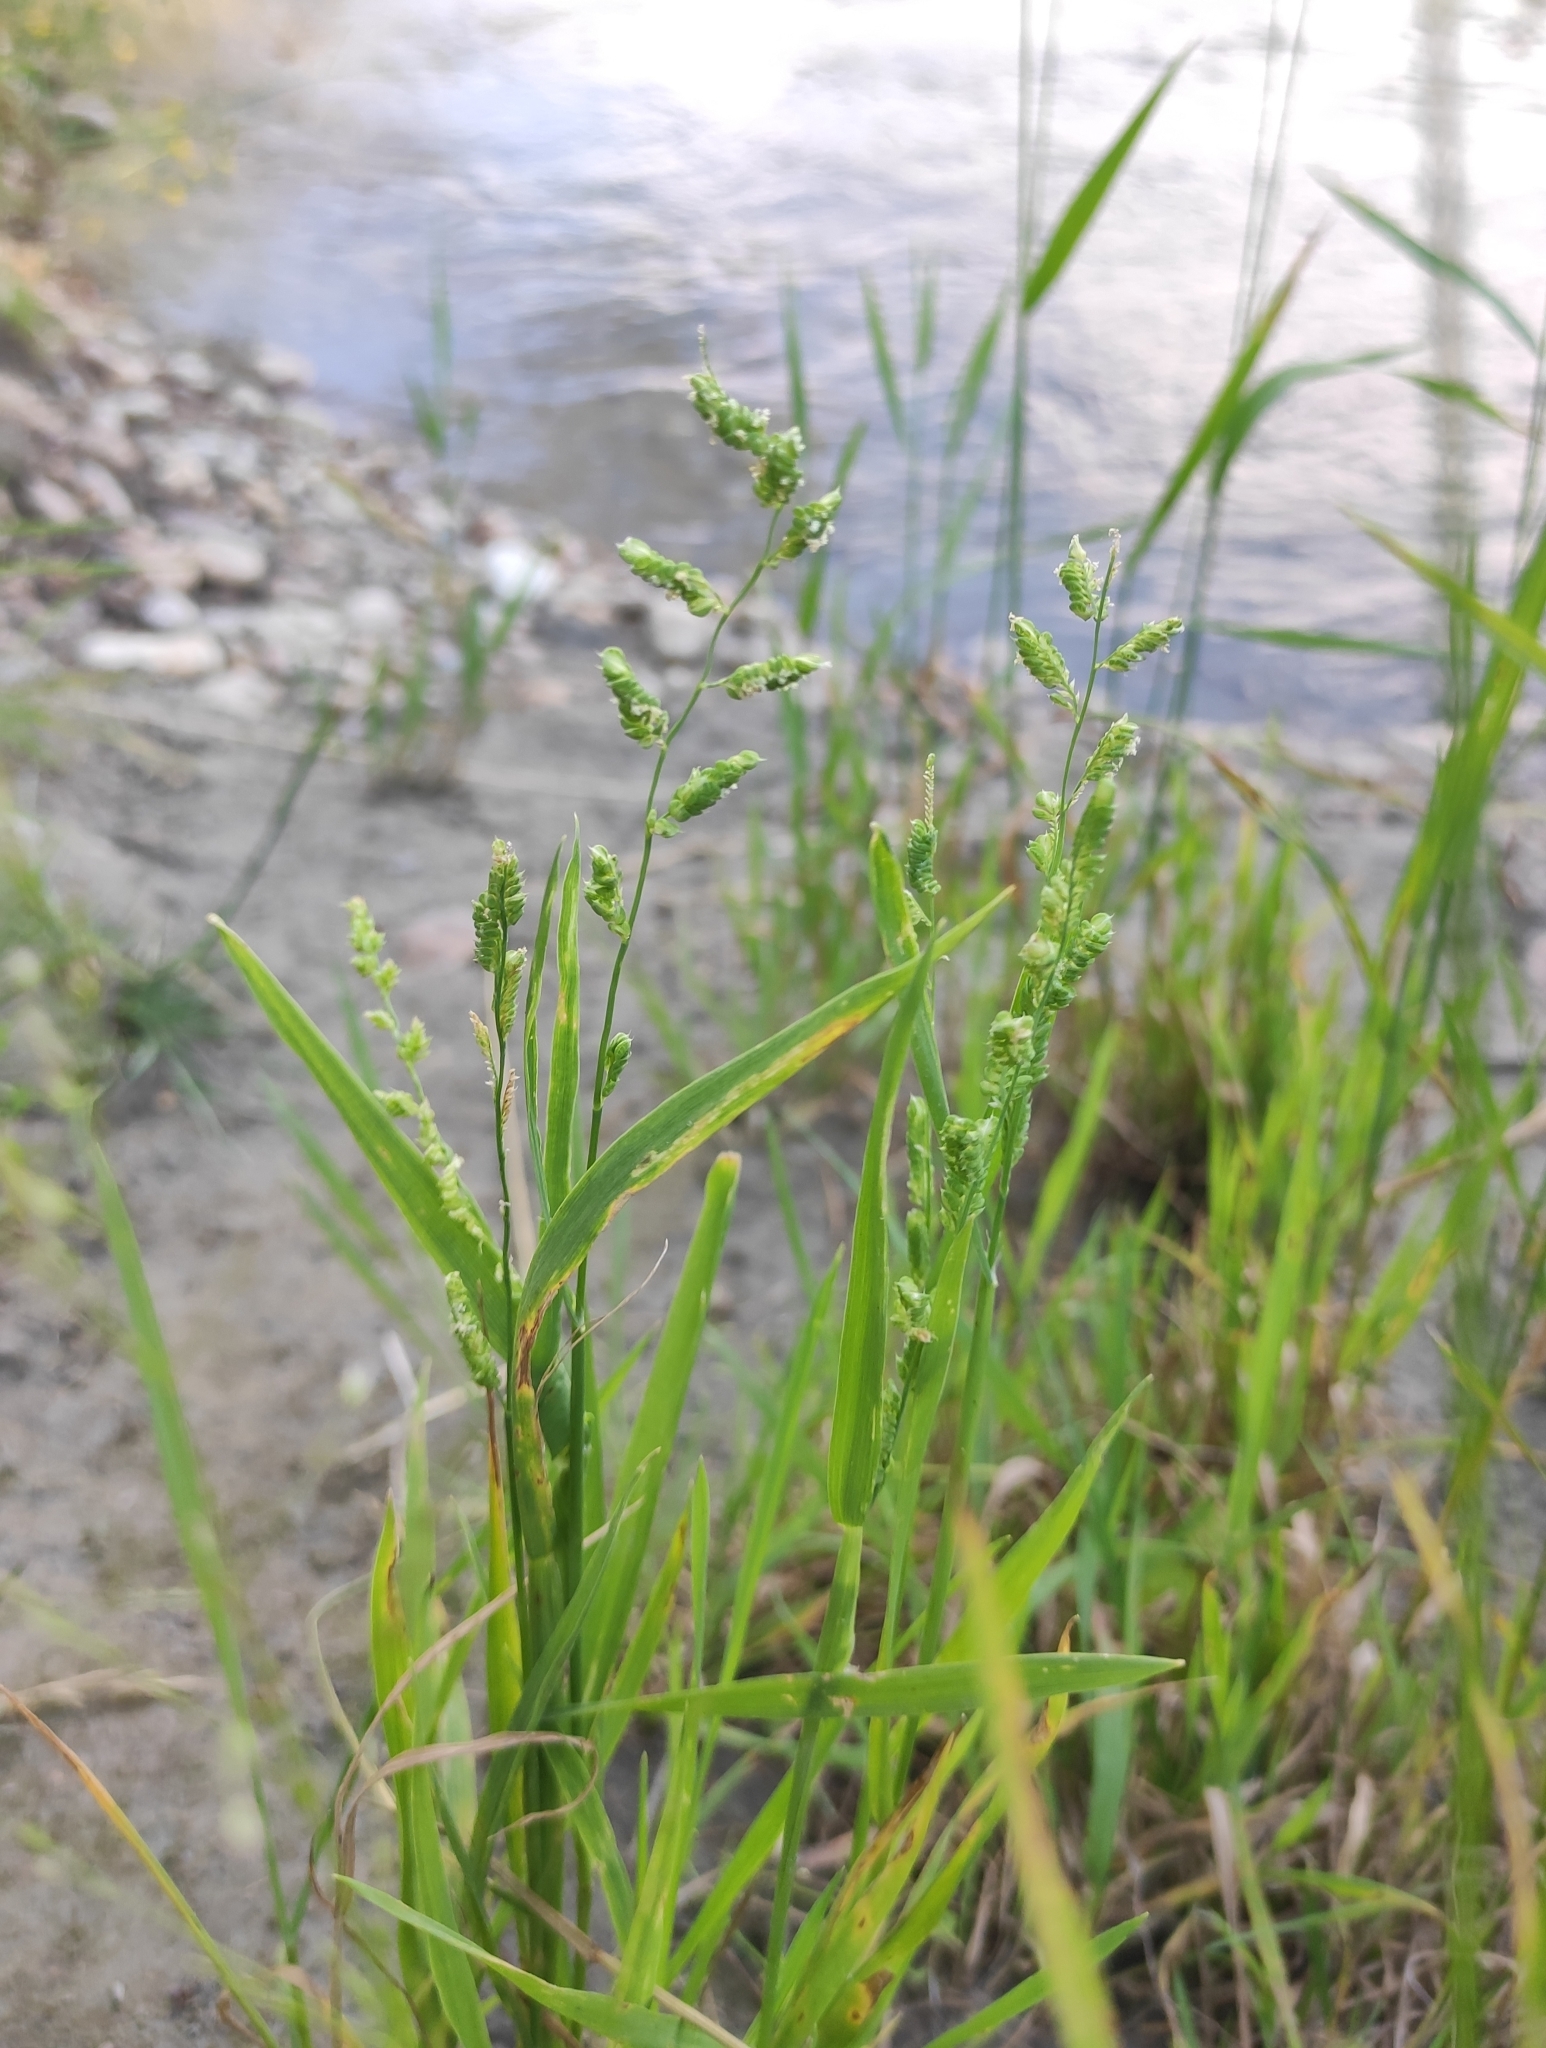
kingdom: Plantae
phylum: Tracheophyta
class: Liliopsida
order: Poales
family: Poaceae
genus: Beckmannia
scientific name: Beckmannia syzigachne
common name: American slough-grass
